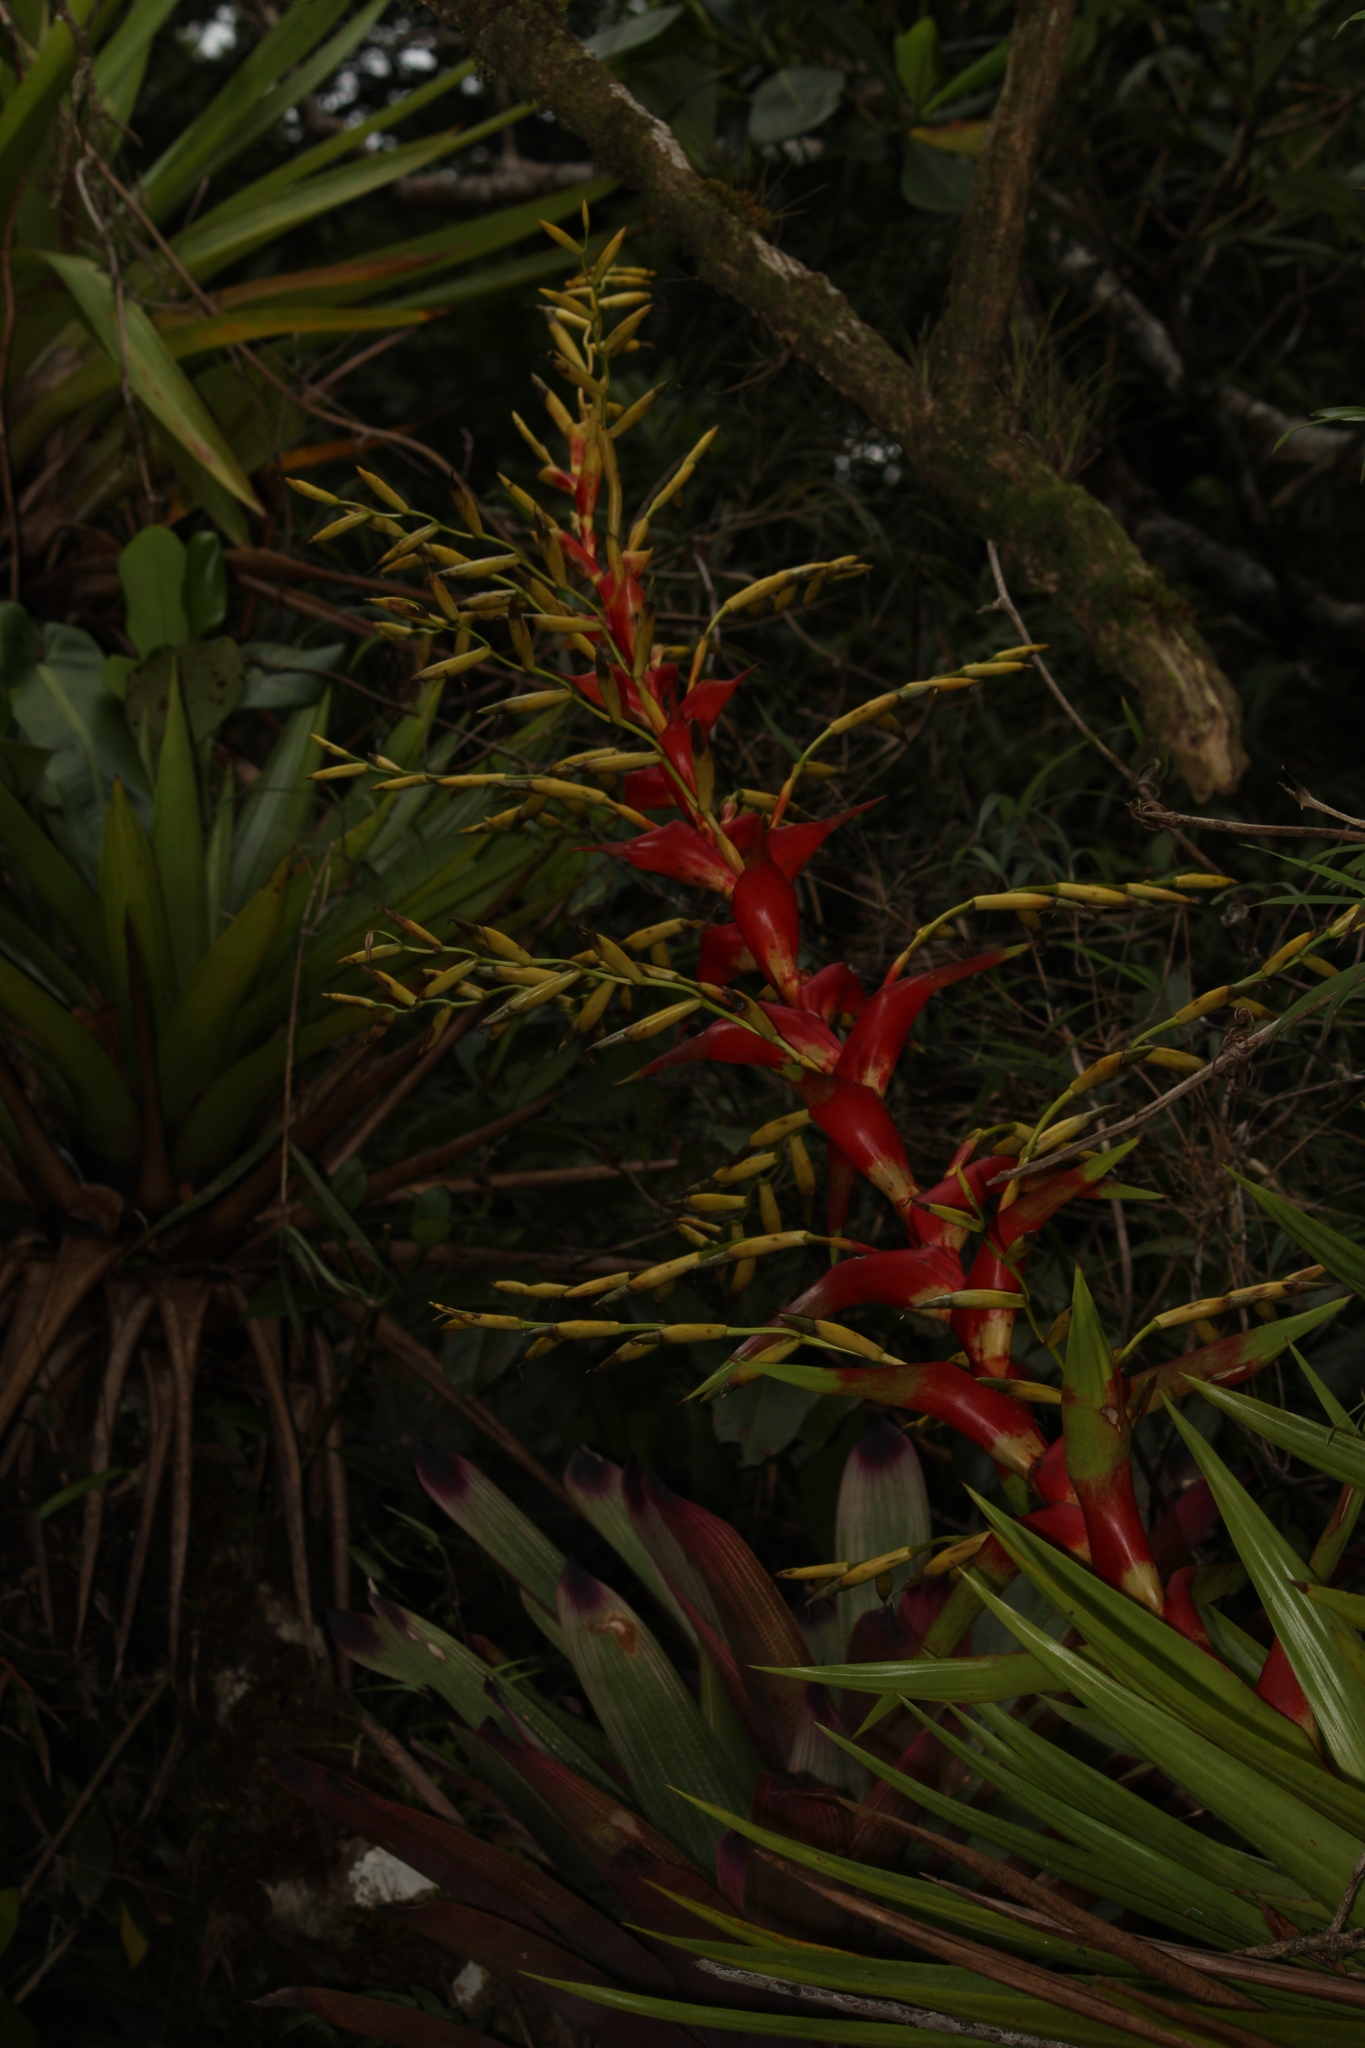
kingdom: Plantae
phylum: Tracheophyta
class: Liliopsida
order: Poales
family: Bromeliaceae
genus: Vriesea
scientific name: Vriesea altodaserrae
